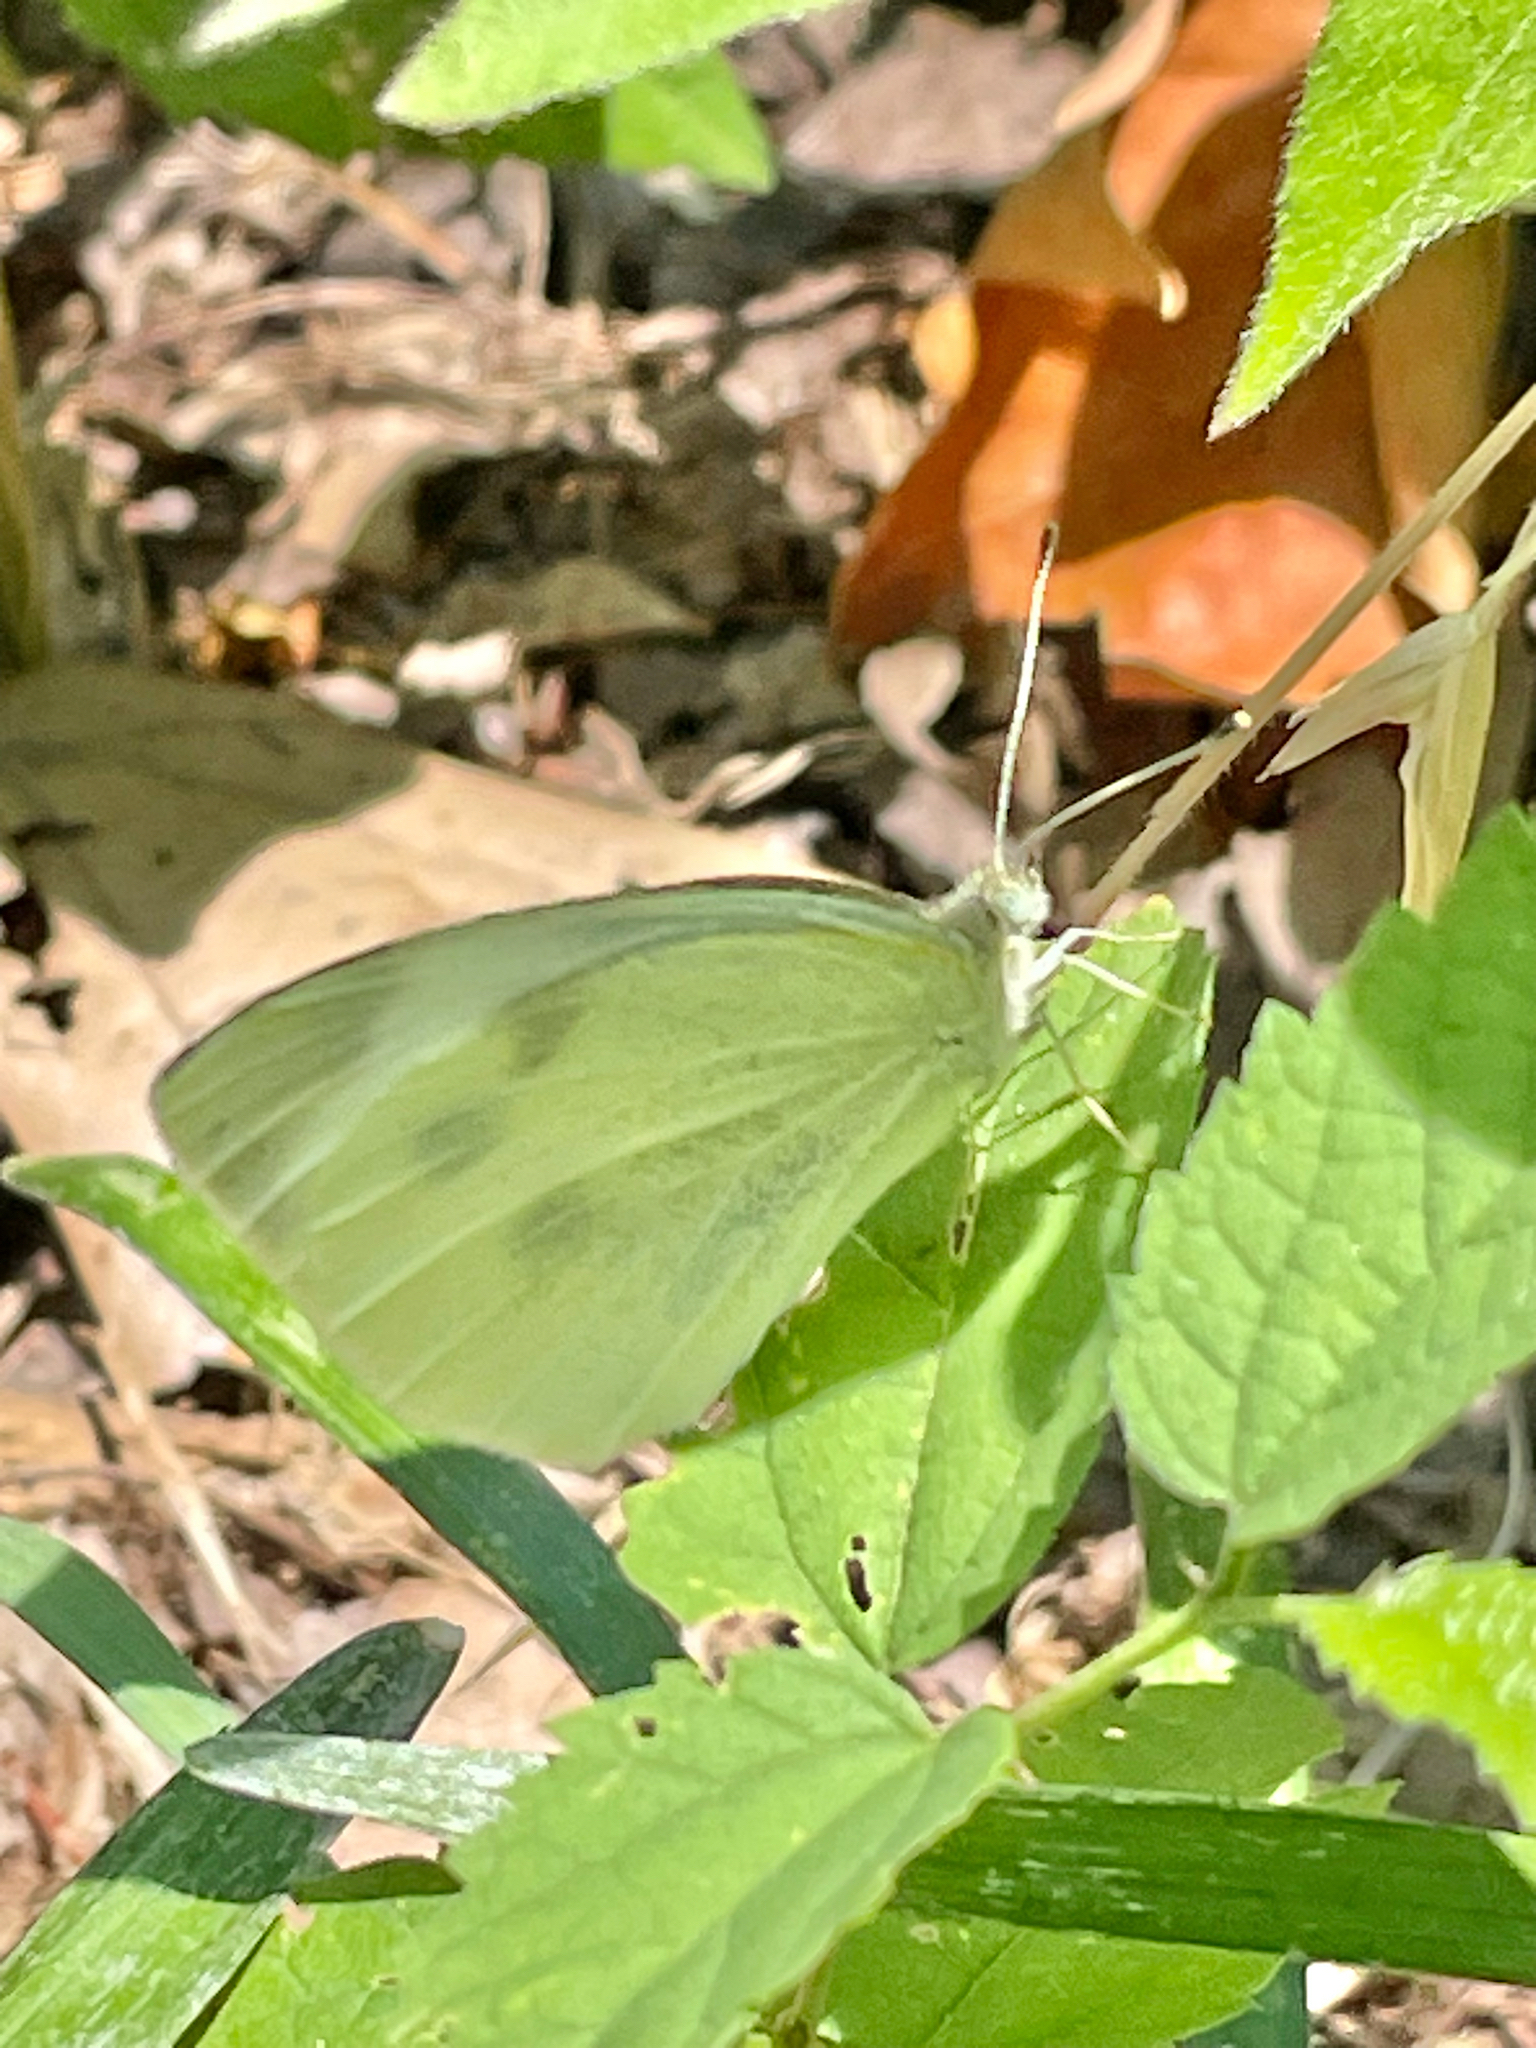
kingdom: Animalia
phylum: Arthropoda
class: Insecta
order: Lepidoptera
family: Pieridae
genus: Pieris
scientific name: Pieris rapae
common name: Small white
